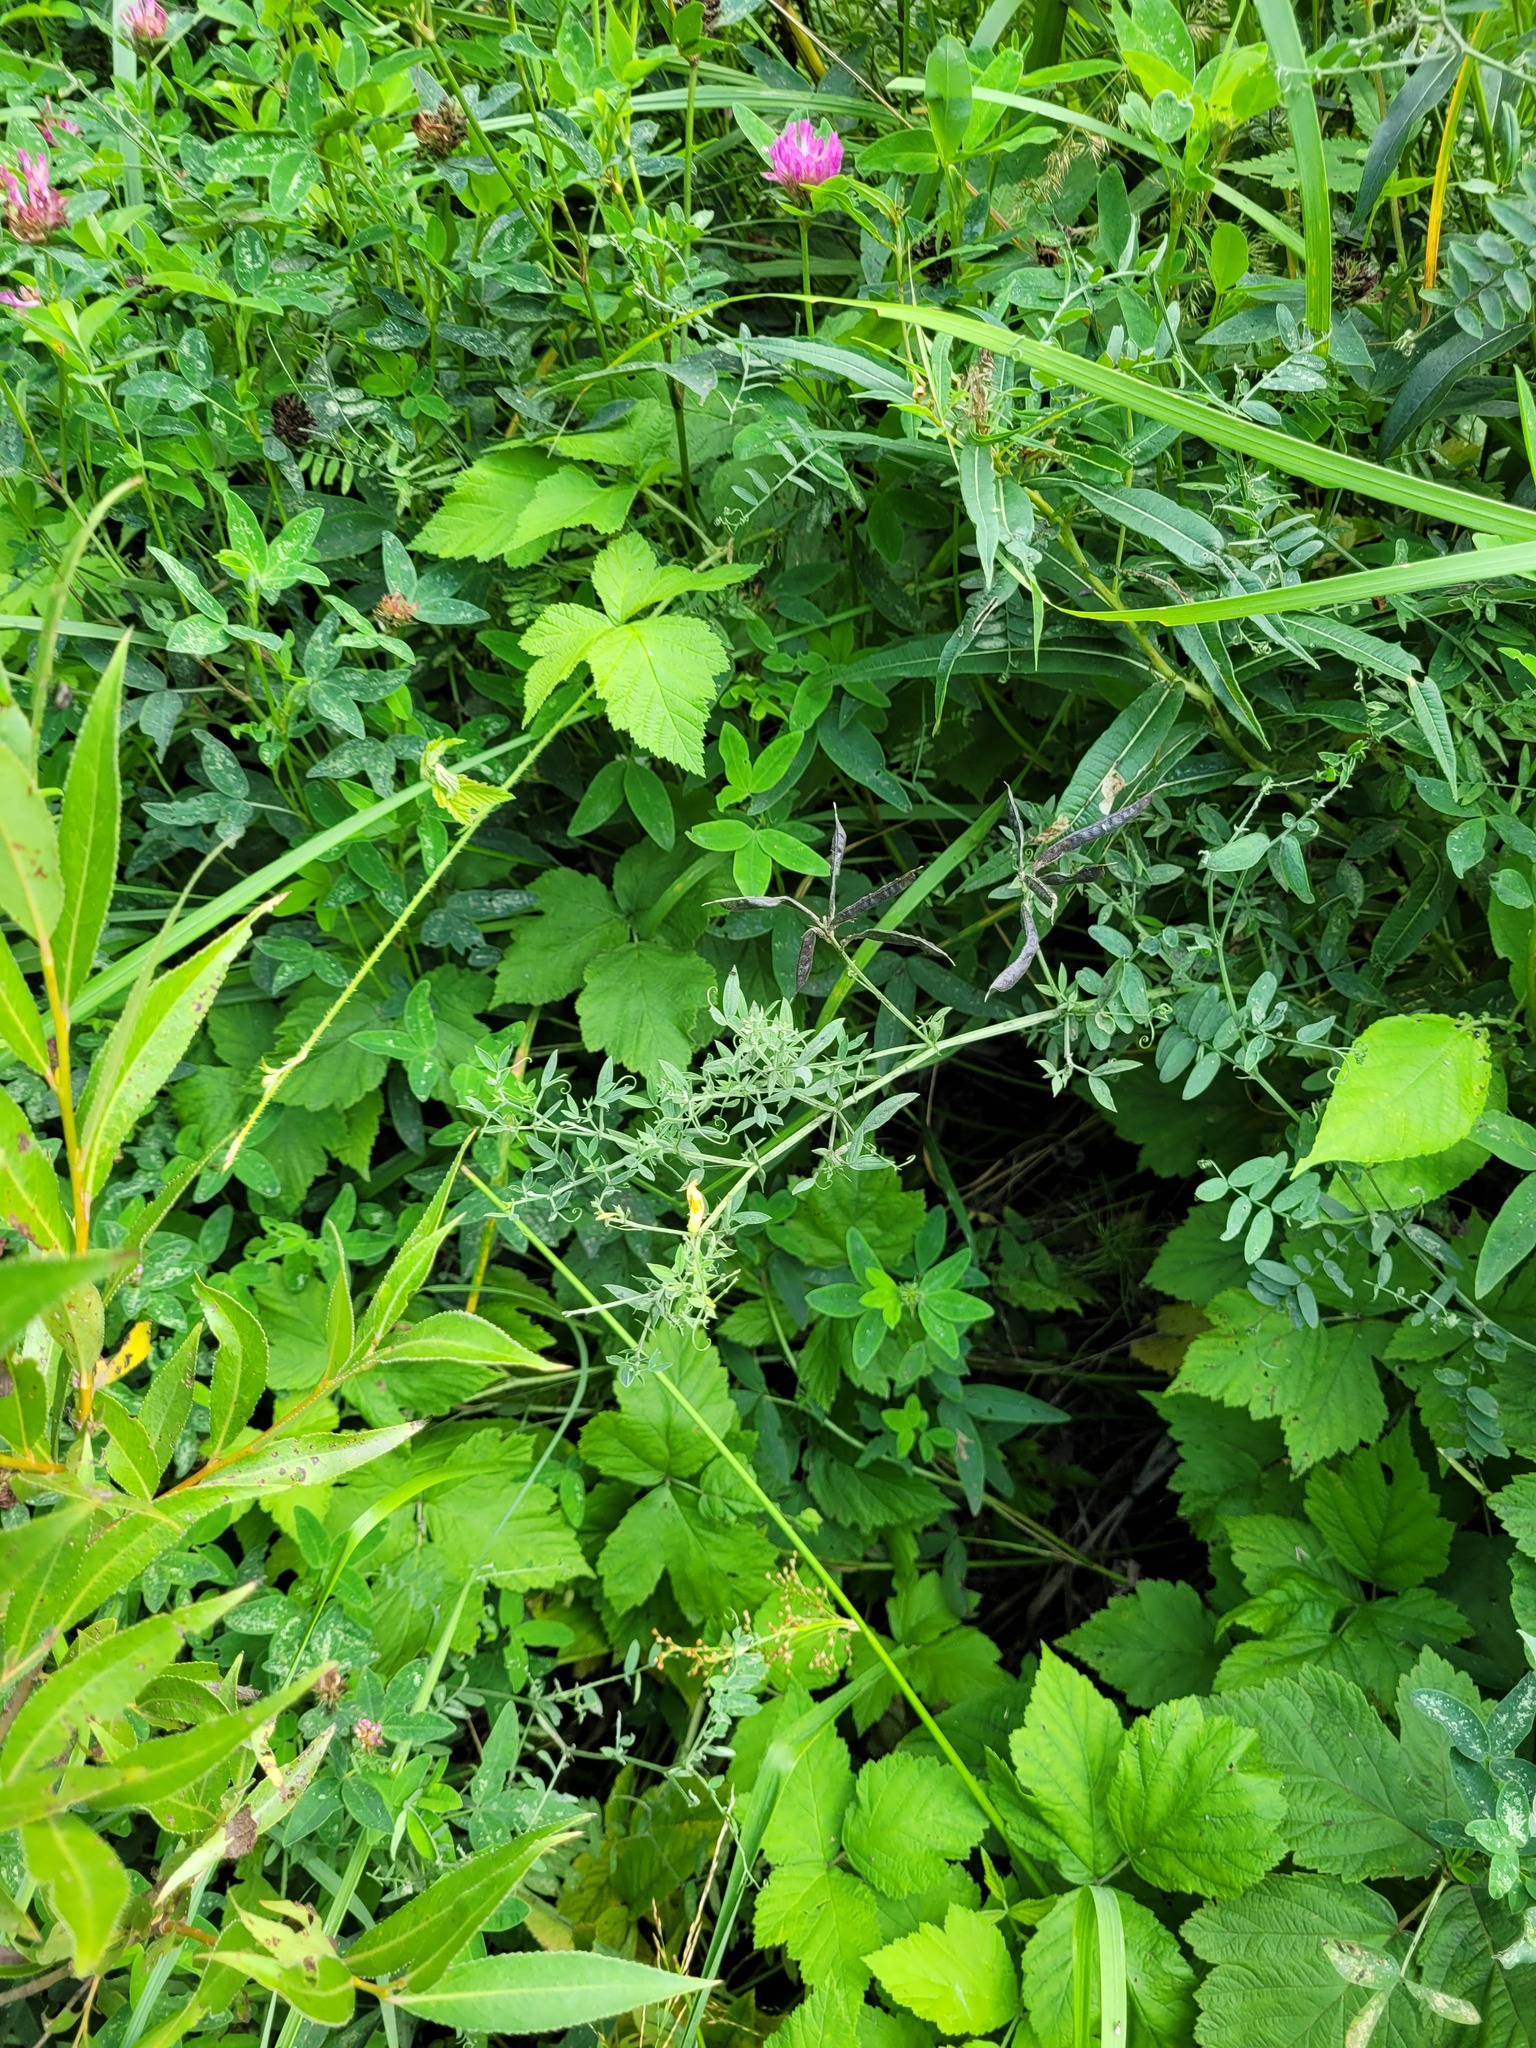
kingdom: Plantae
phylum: Tracheophyta
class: Magnoliopsida
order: Fabales
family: Fabaceae
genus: Lathyrus
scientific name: Lathyrus pratensis
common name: Meadow vetchling
